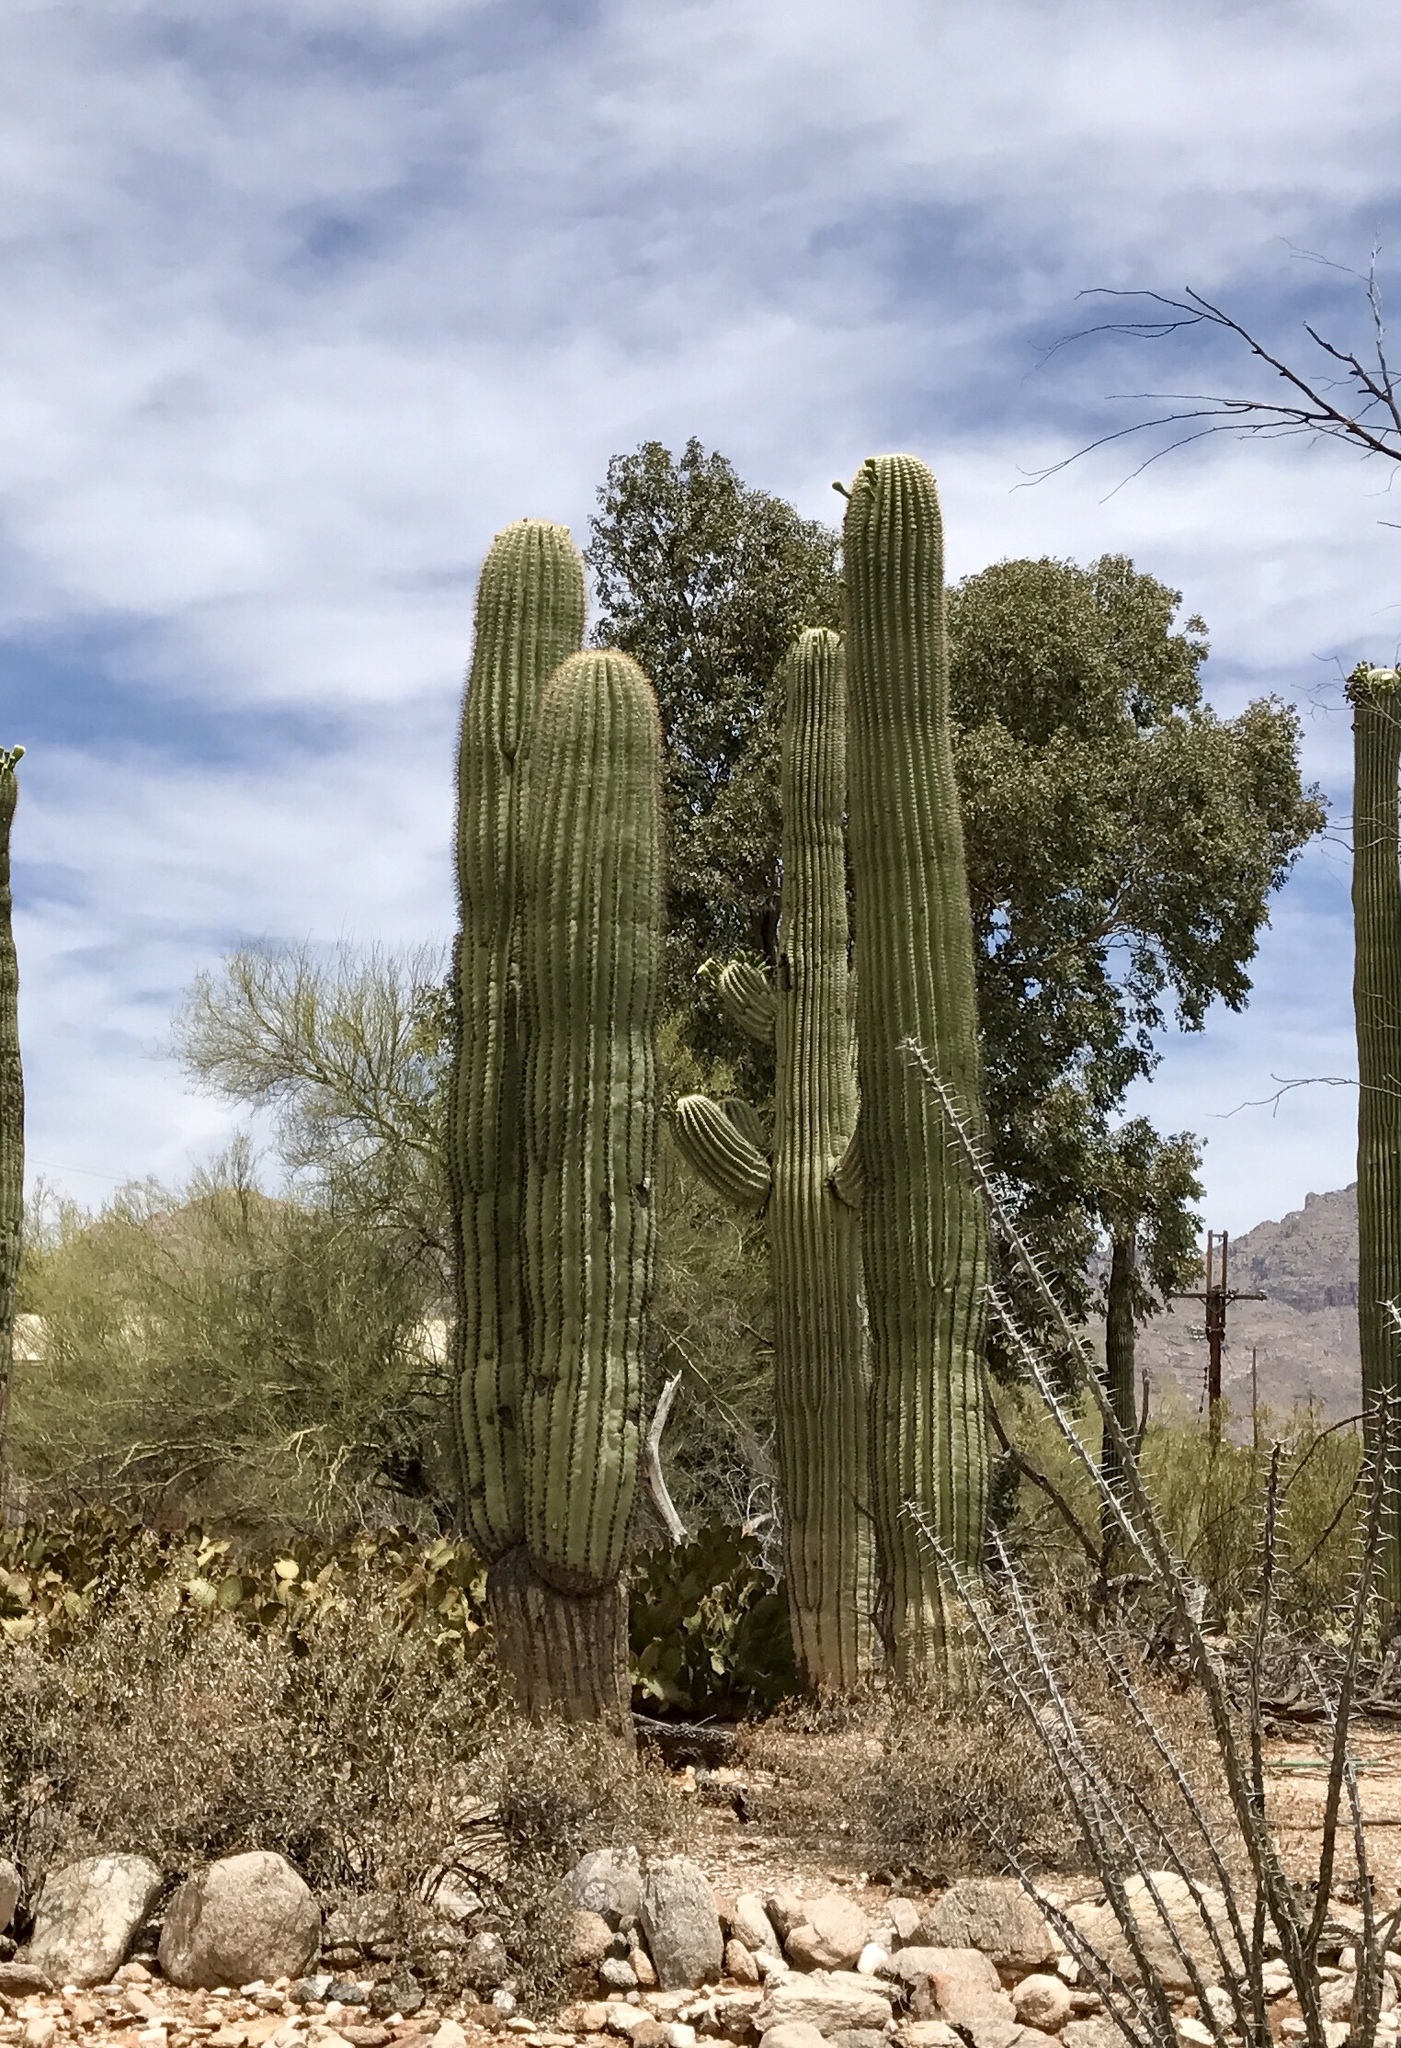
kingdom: Plantae
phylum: Tracheophyta
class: Magnoliopsida
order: Caryophyllales
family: Cactaceae
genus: Carnegiea
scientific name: Carnegiea gigantea
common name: Saguaro
